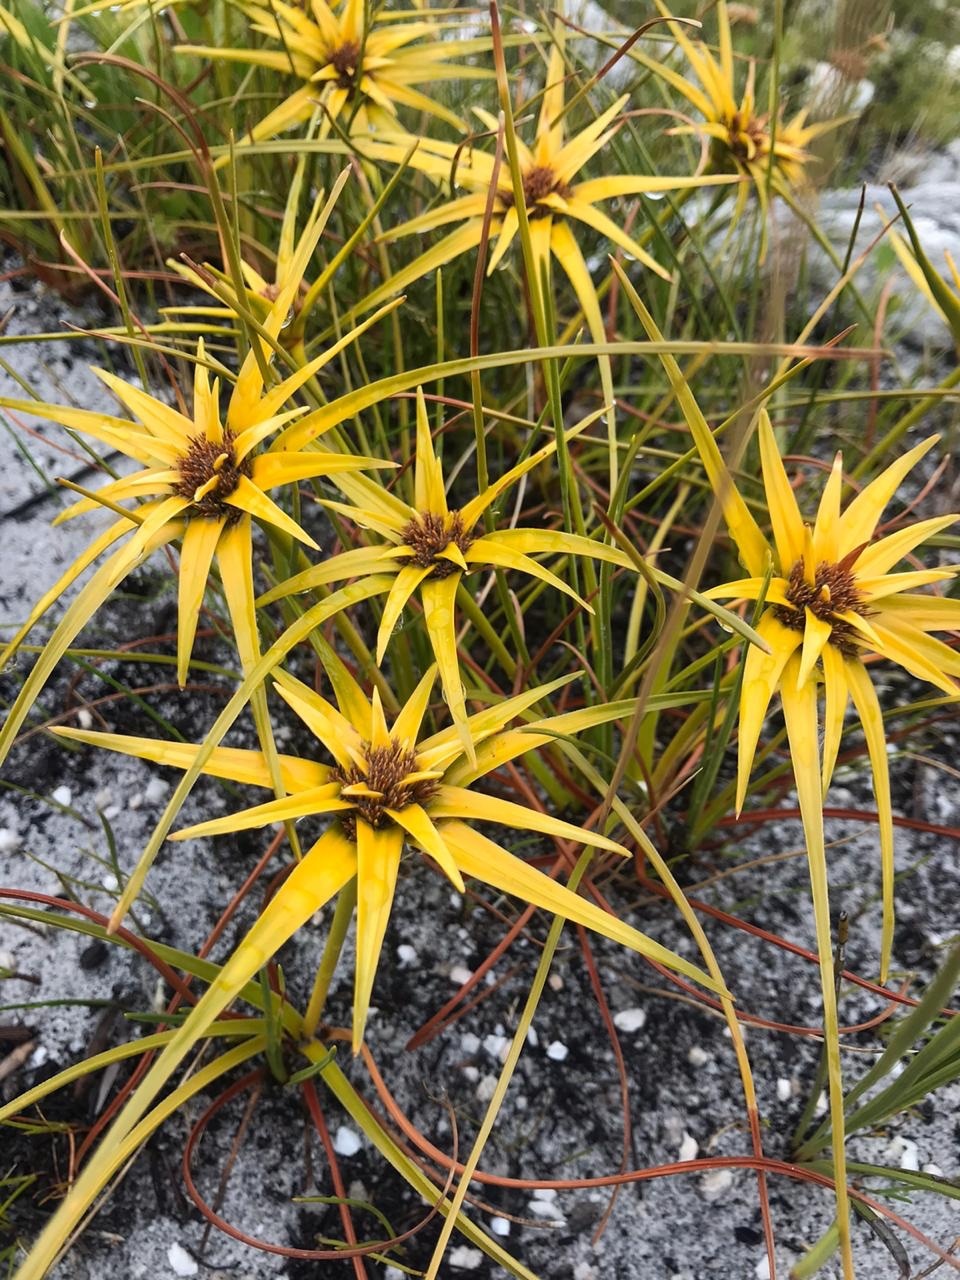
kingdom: Plantae
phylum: Tracheophyta
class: Liliopsida
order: Poales
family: Cyperaceae
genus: Ficinia
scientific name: Ficinia radiata
